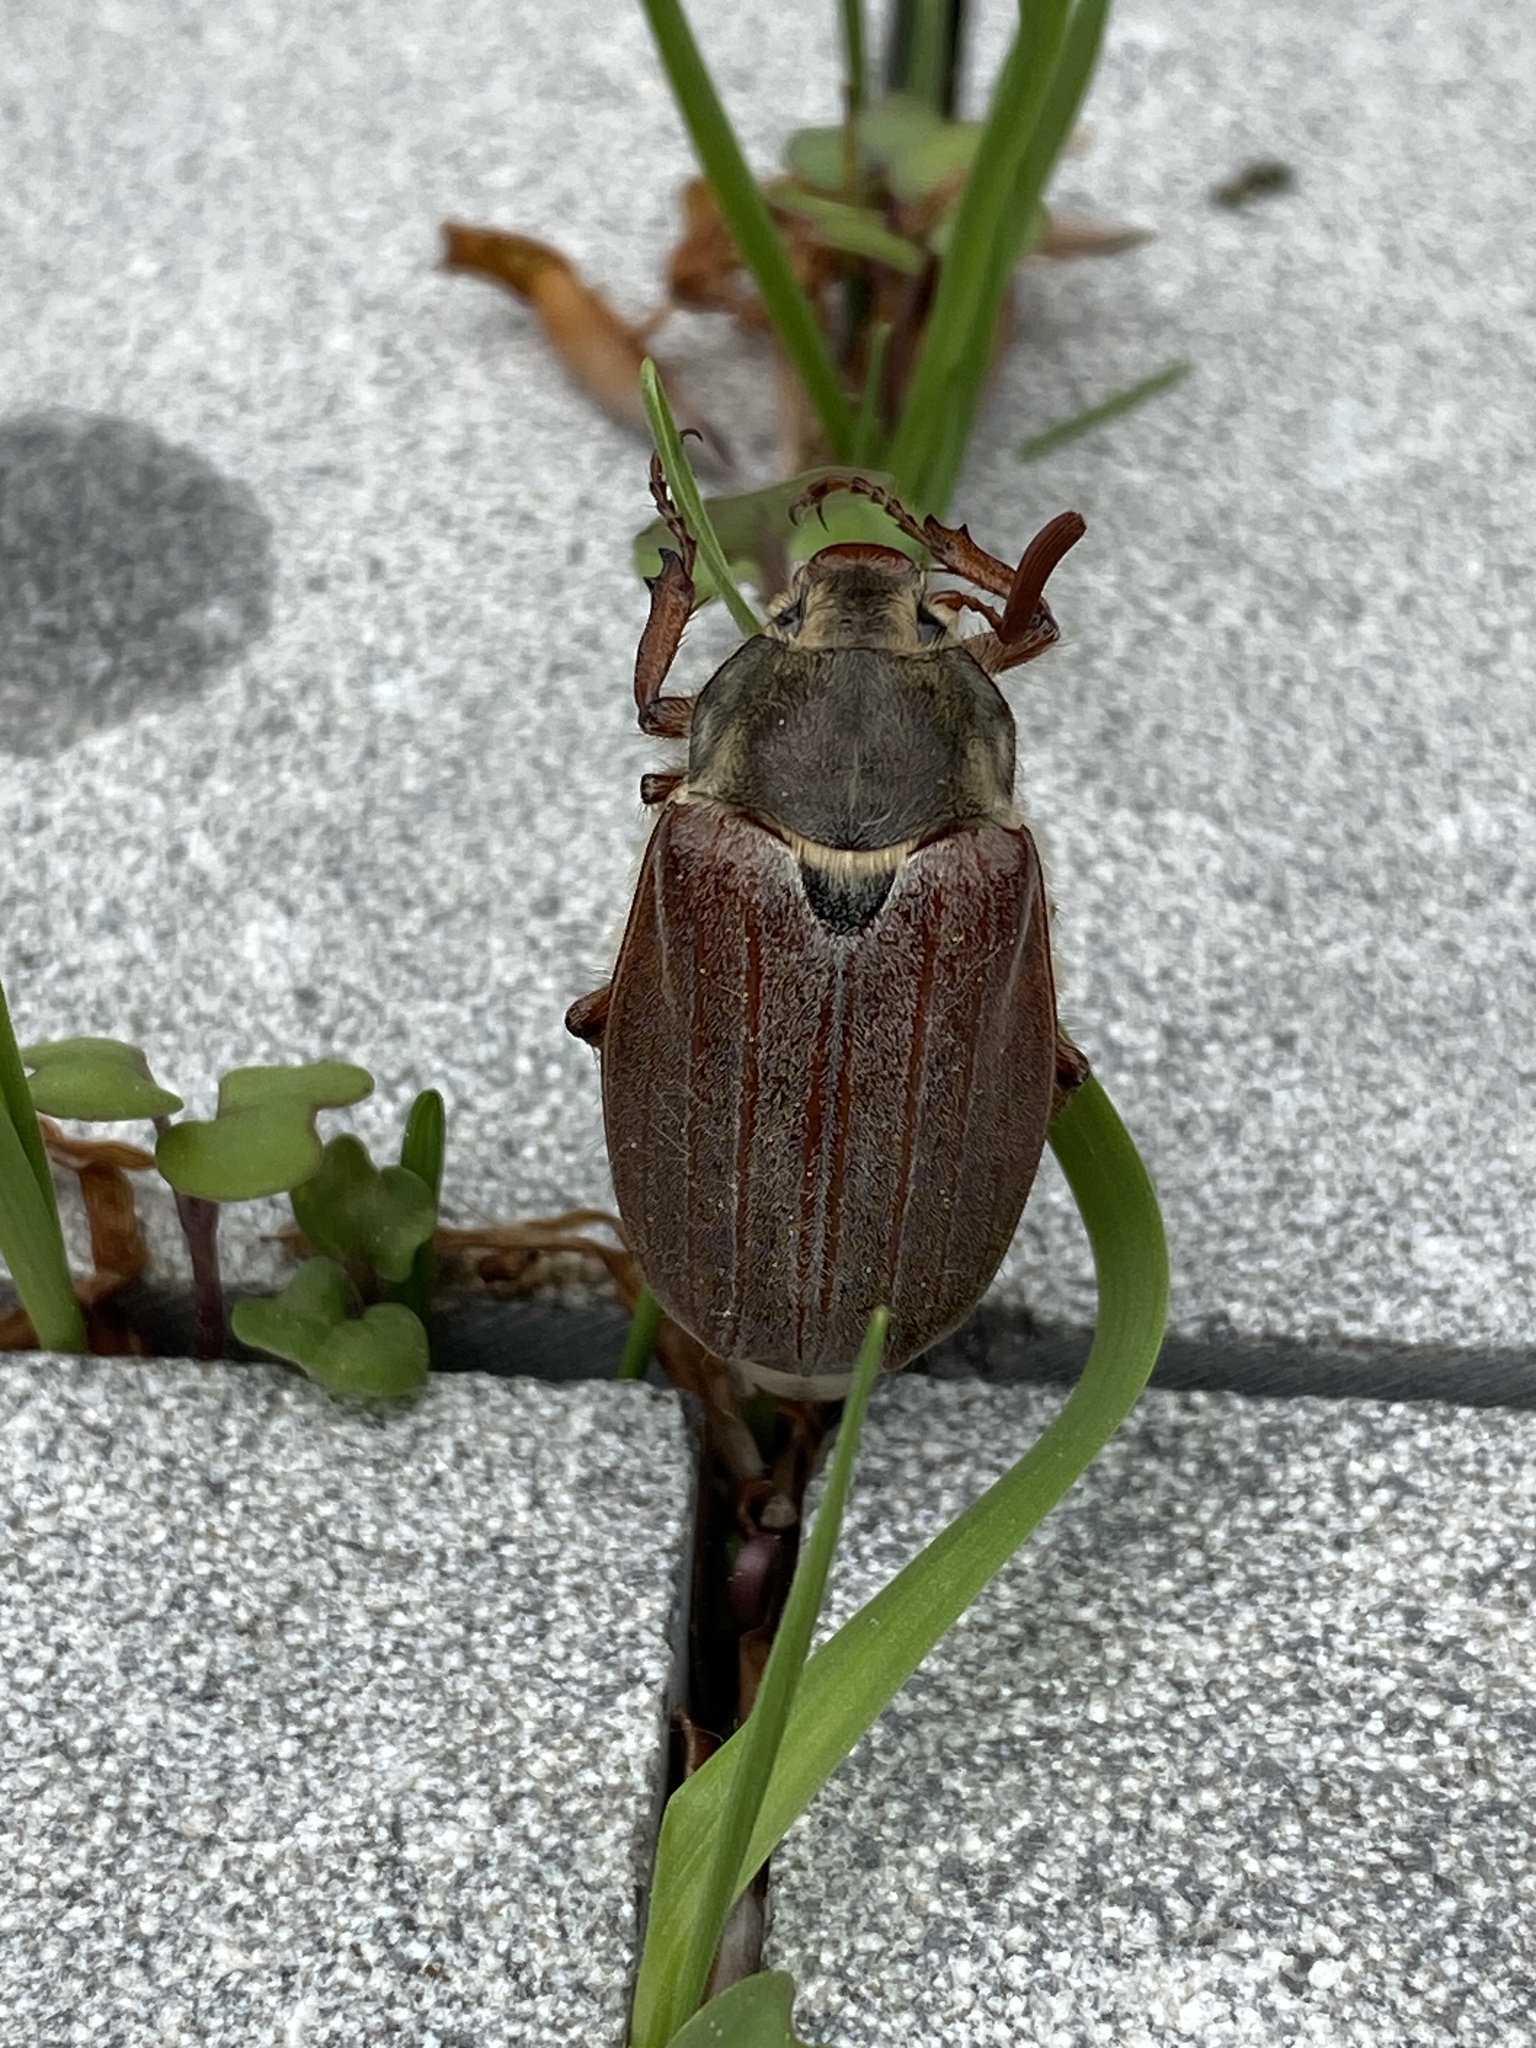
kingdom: Animalia
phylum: Arthropoda
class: Insecta
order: Coleoptera
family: Scarabaeidae
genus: Melolontha
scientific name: Melolontha melolontha
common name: Cockchafer maybeetle
